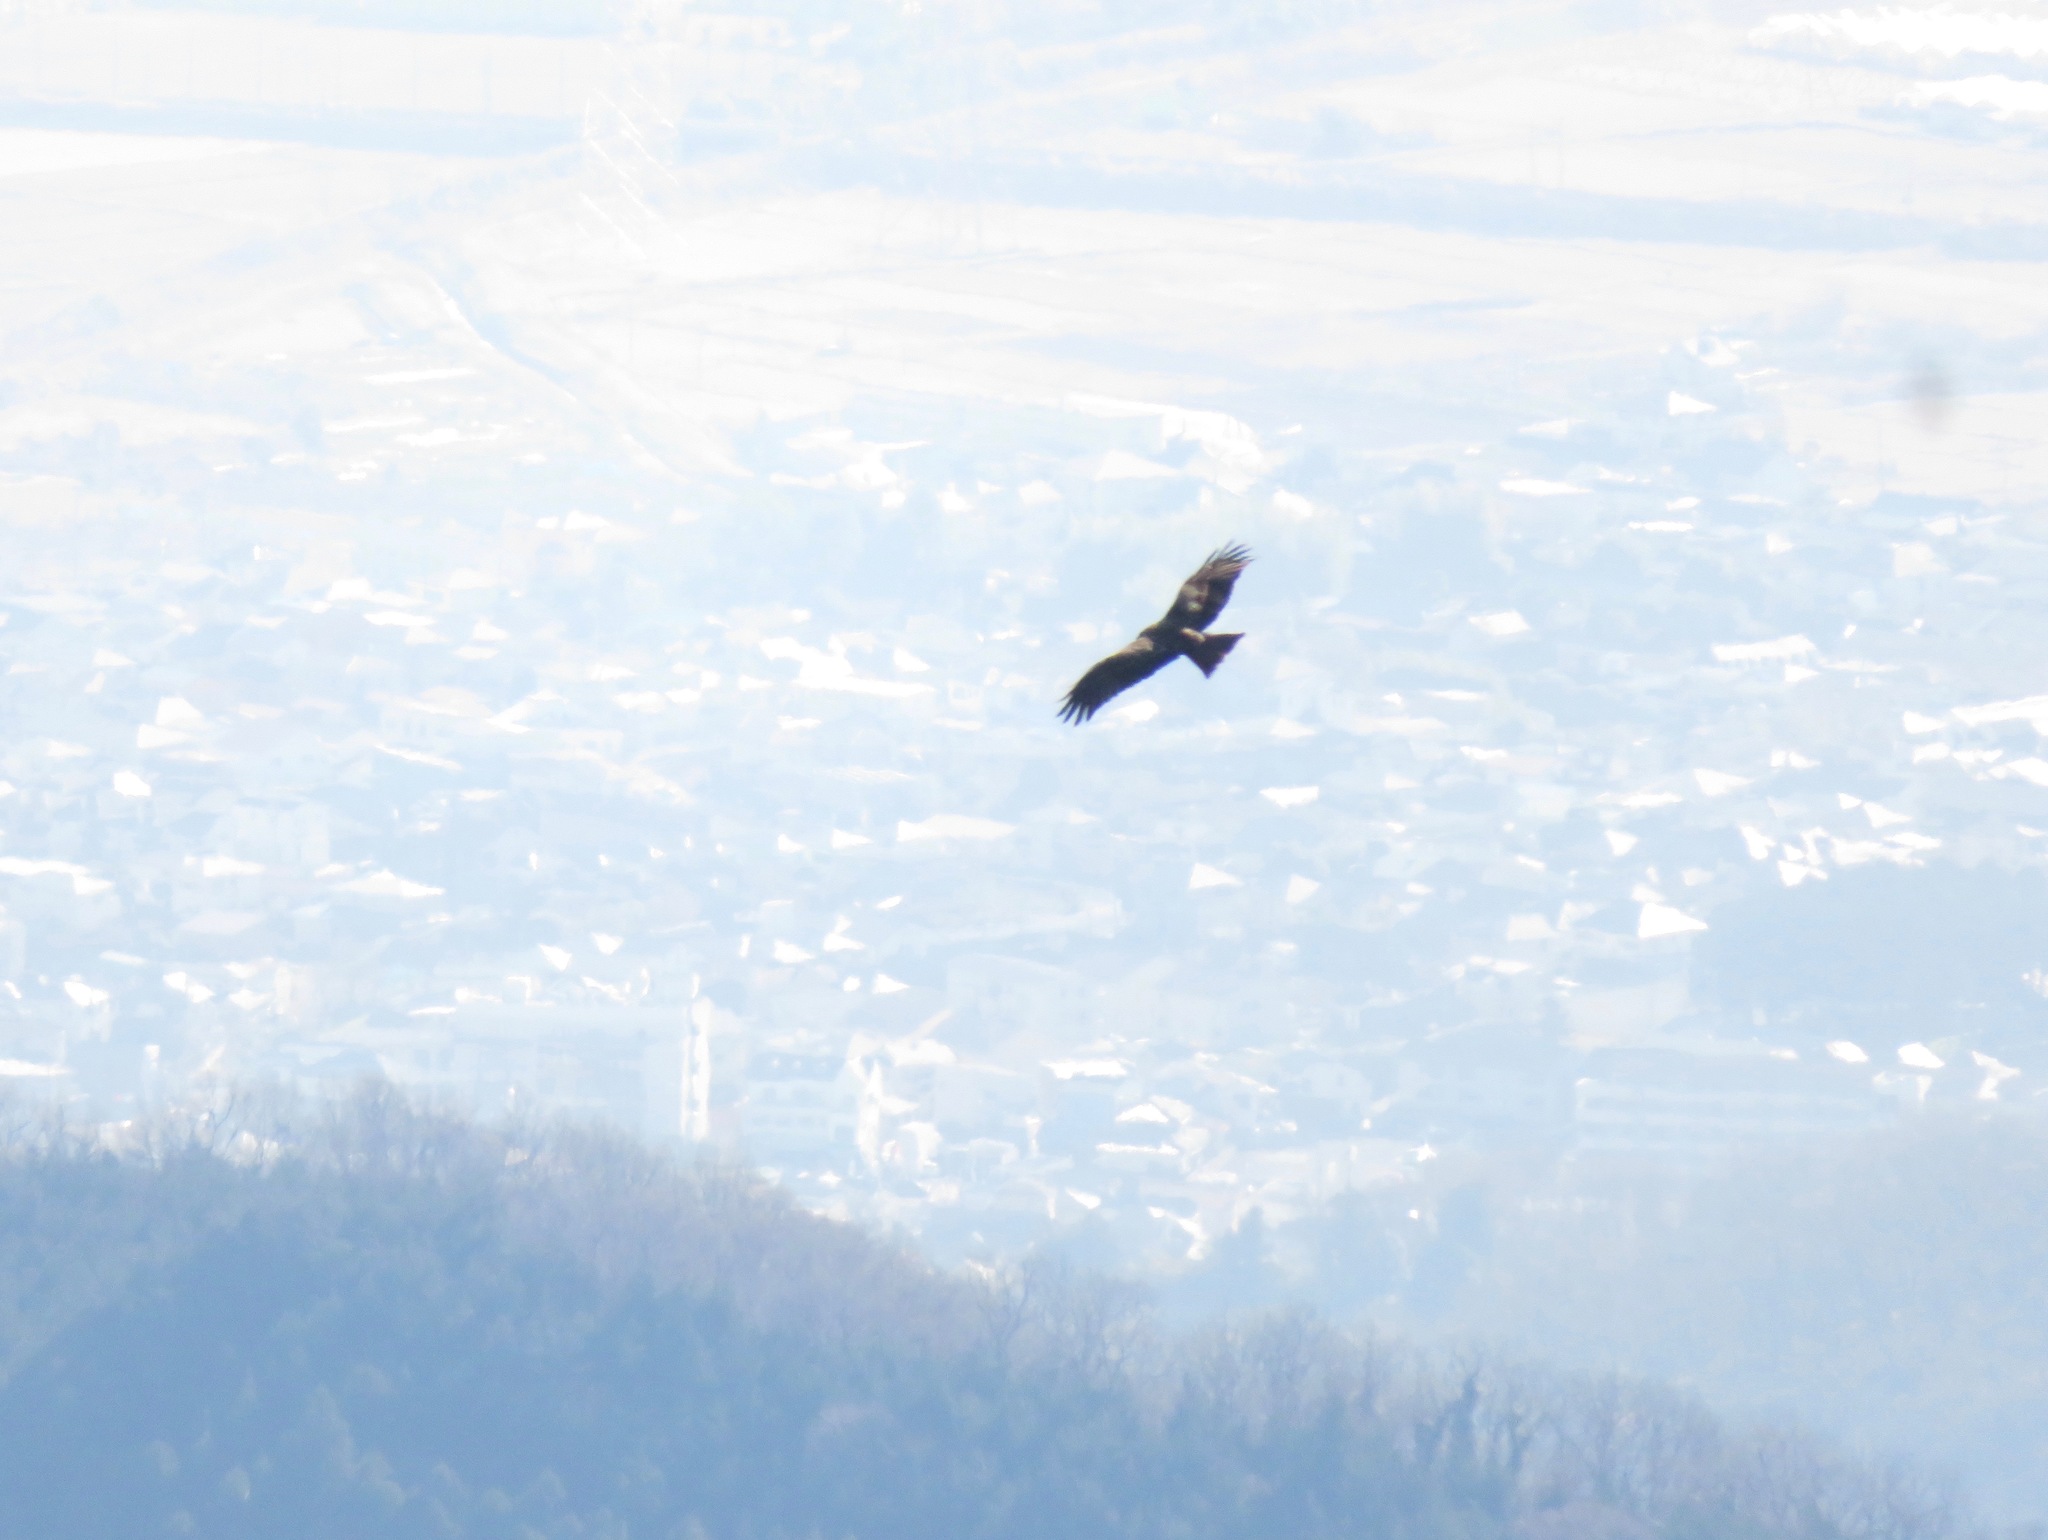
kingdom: Animalia
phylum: Chordata
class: Aves
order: Accipitriformes
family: Accipitridae
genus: Milvus
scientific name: Milvus migrans
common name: Black kite
